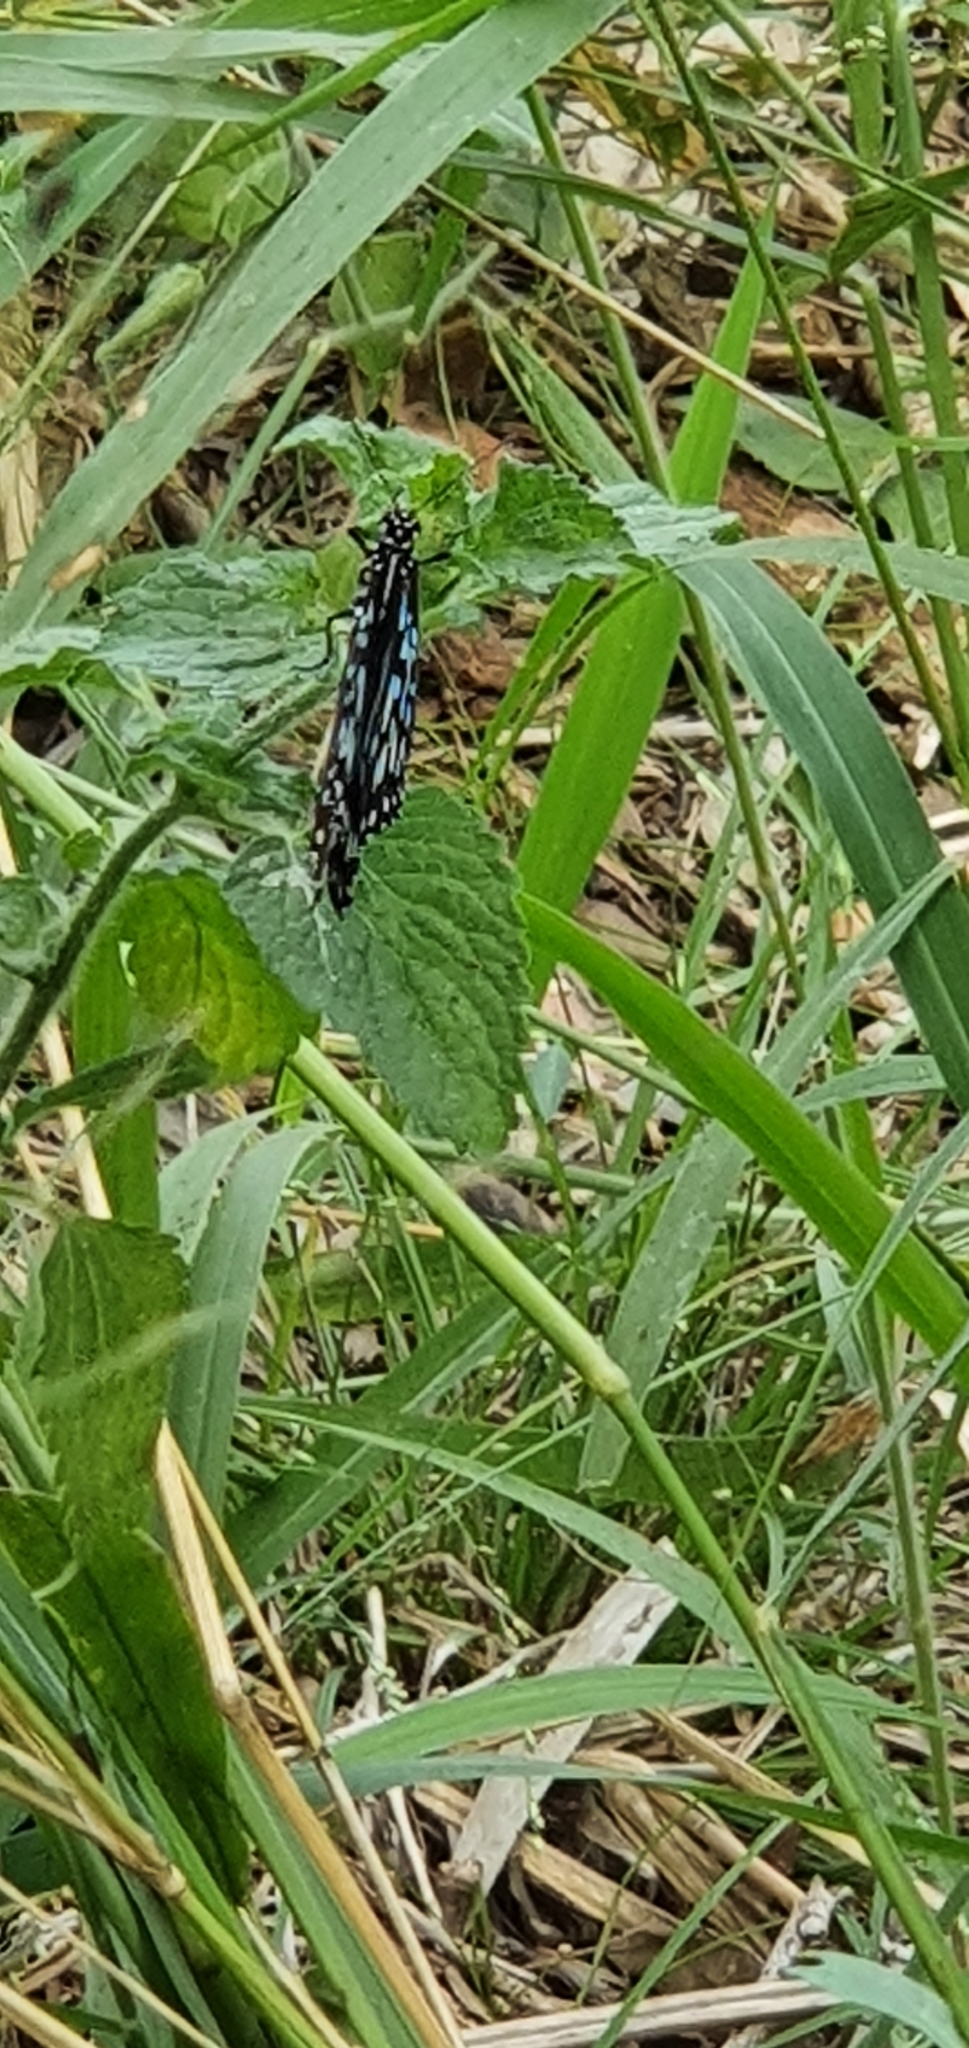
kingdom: Animalia
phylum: Arthropoda
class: Insecta
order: Lepidoptera
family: Nymphalidae
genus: Tirumala
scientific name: Tirumala hamata
